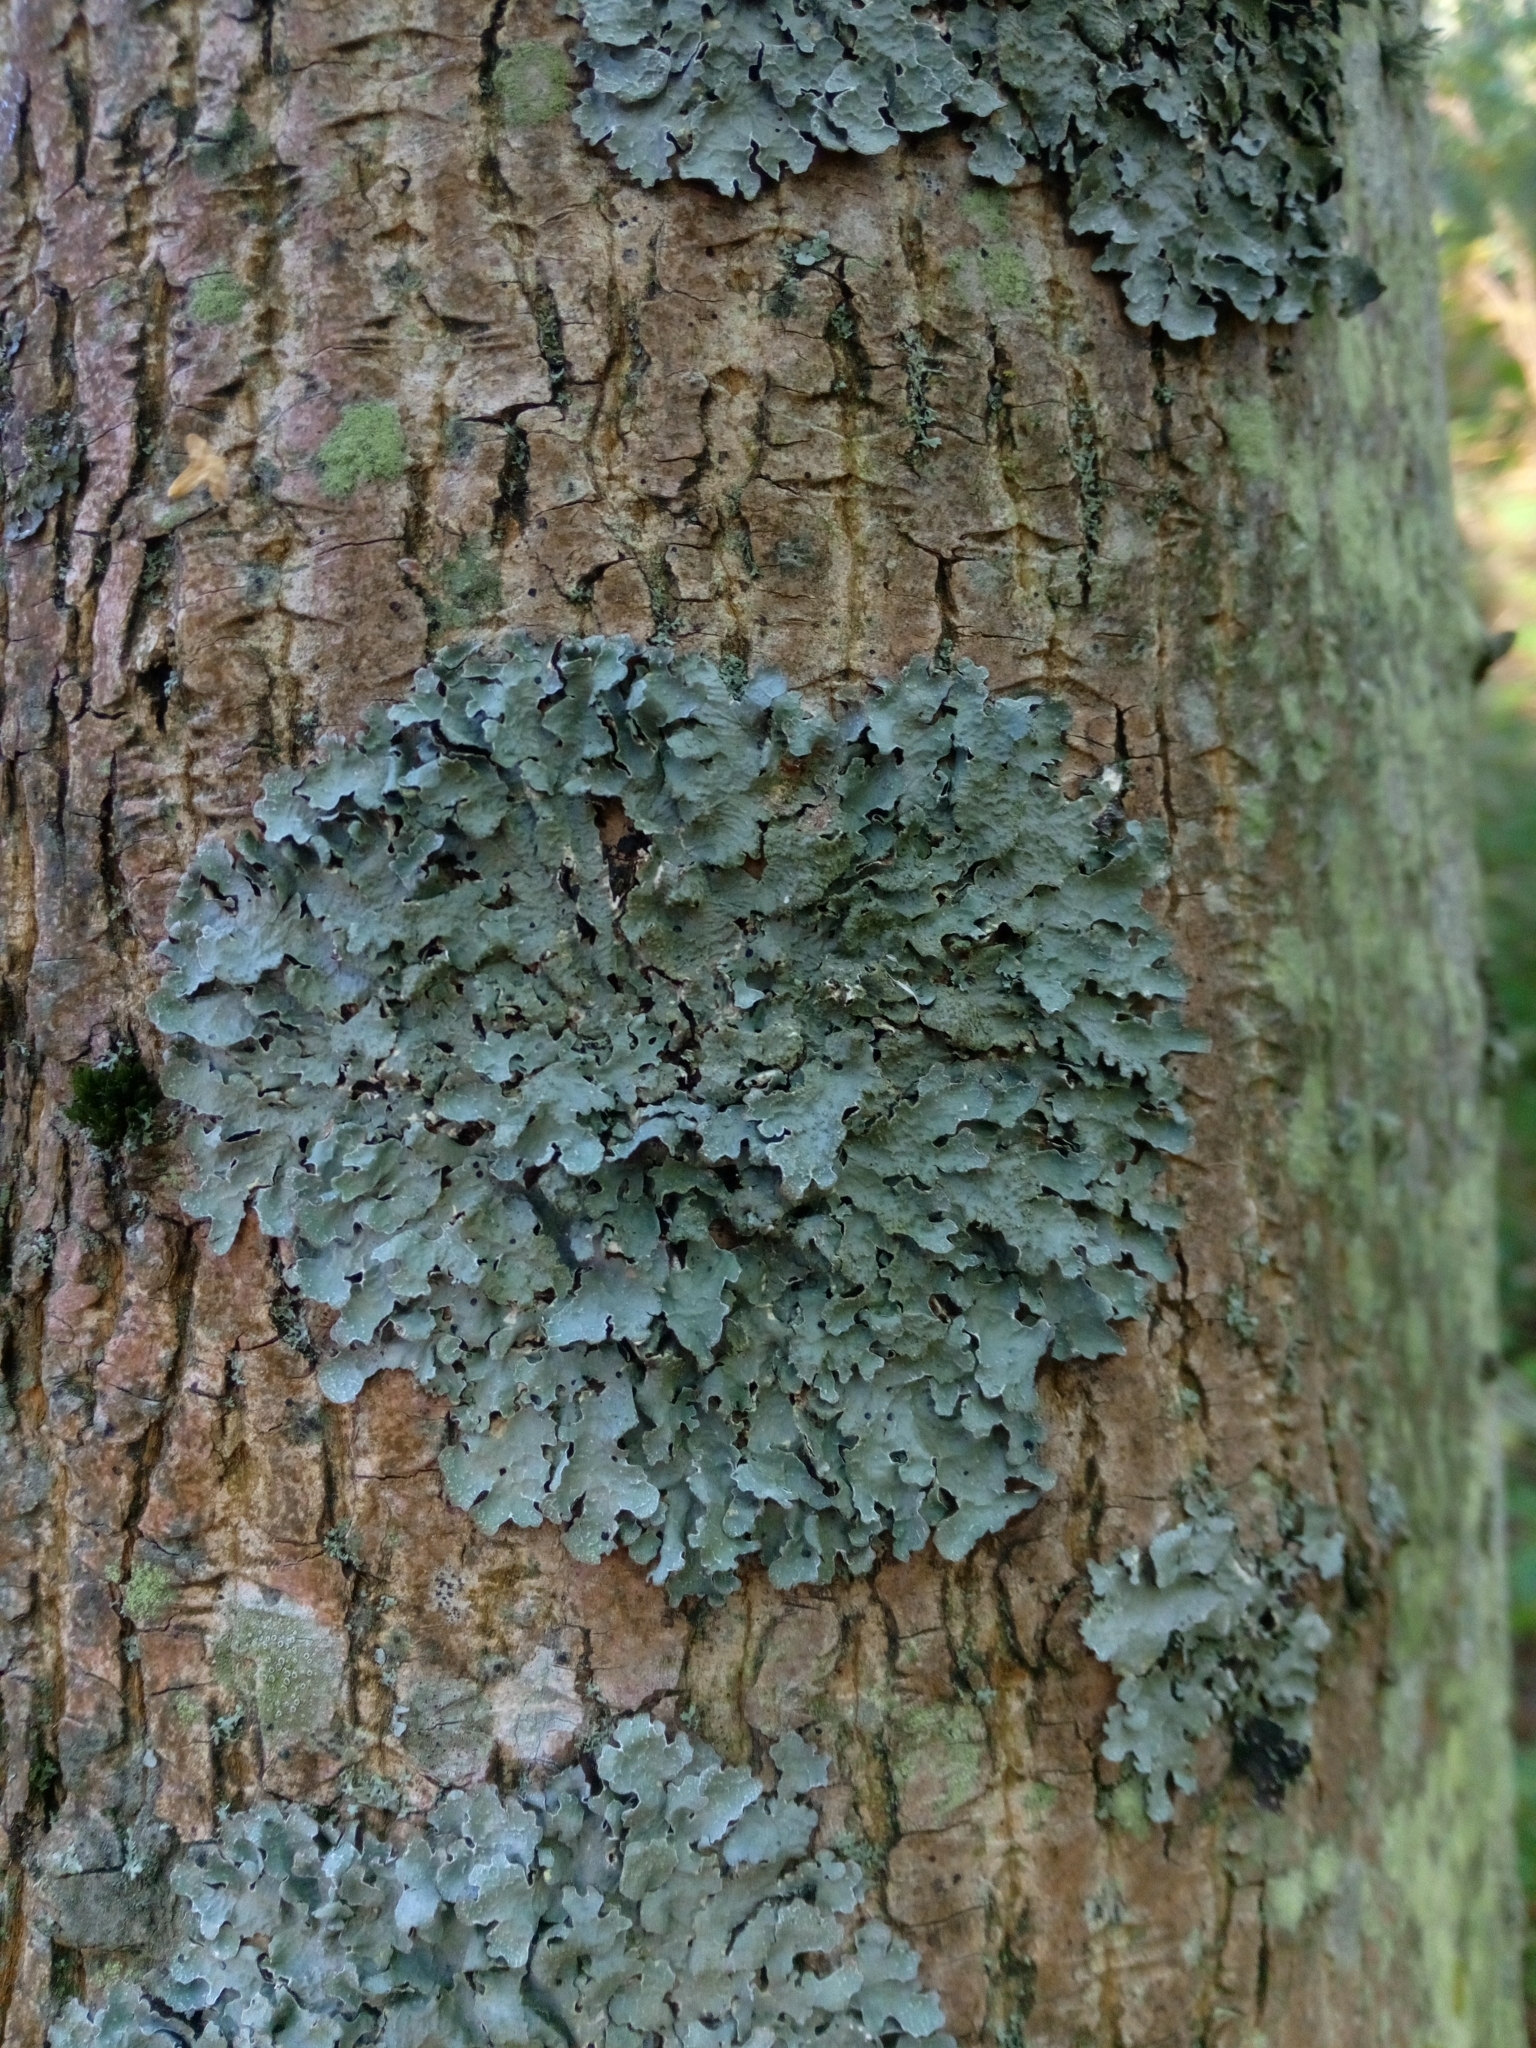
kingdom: Fungi
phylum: Ascomycota
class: Lecanoromycetes
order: Lecanorales
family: Parmeliaceae
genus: Parmelia
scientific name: Parmelia sulcata
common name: Netted shield lichen
